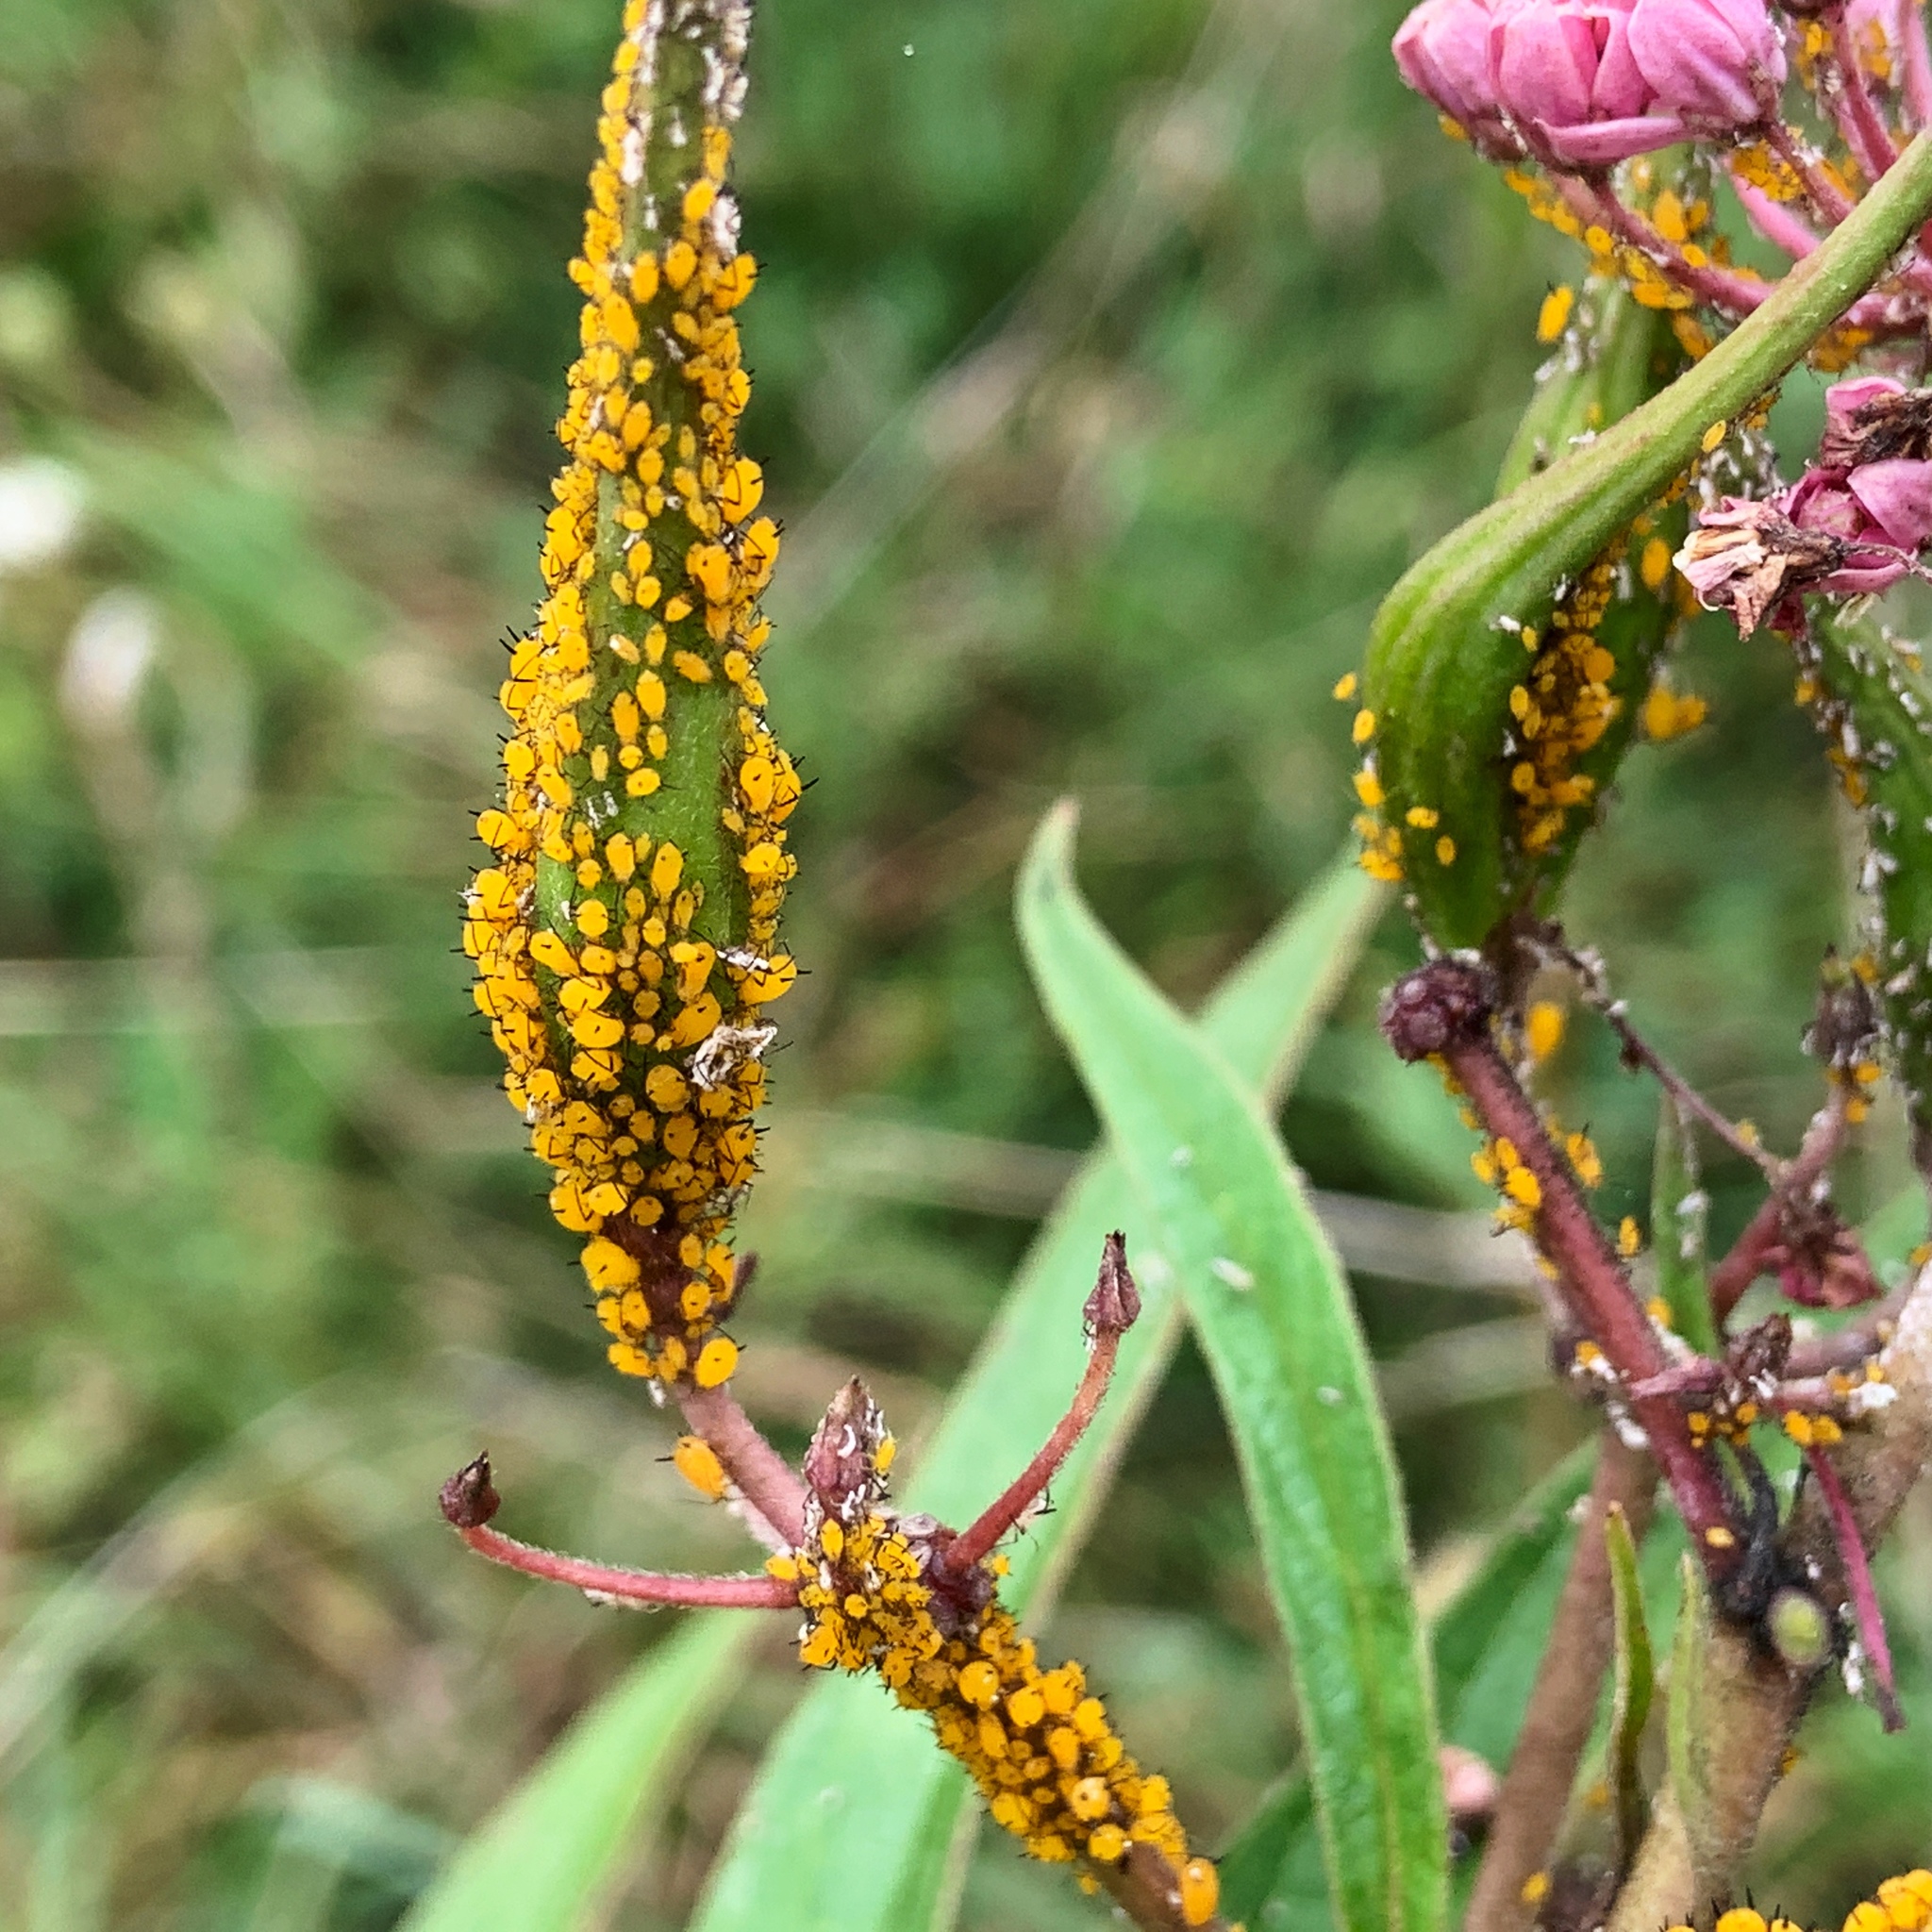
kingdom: Animalia
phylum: Arthropoda
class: Insecta
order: Hemiptera
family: Aphididae
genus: Aphis
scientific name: Aphis nerii
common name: Oleander aphid
